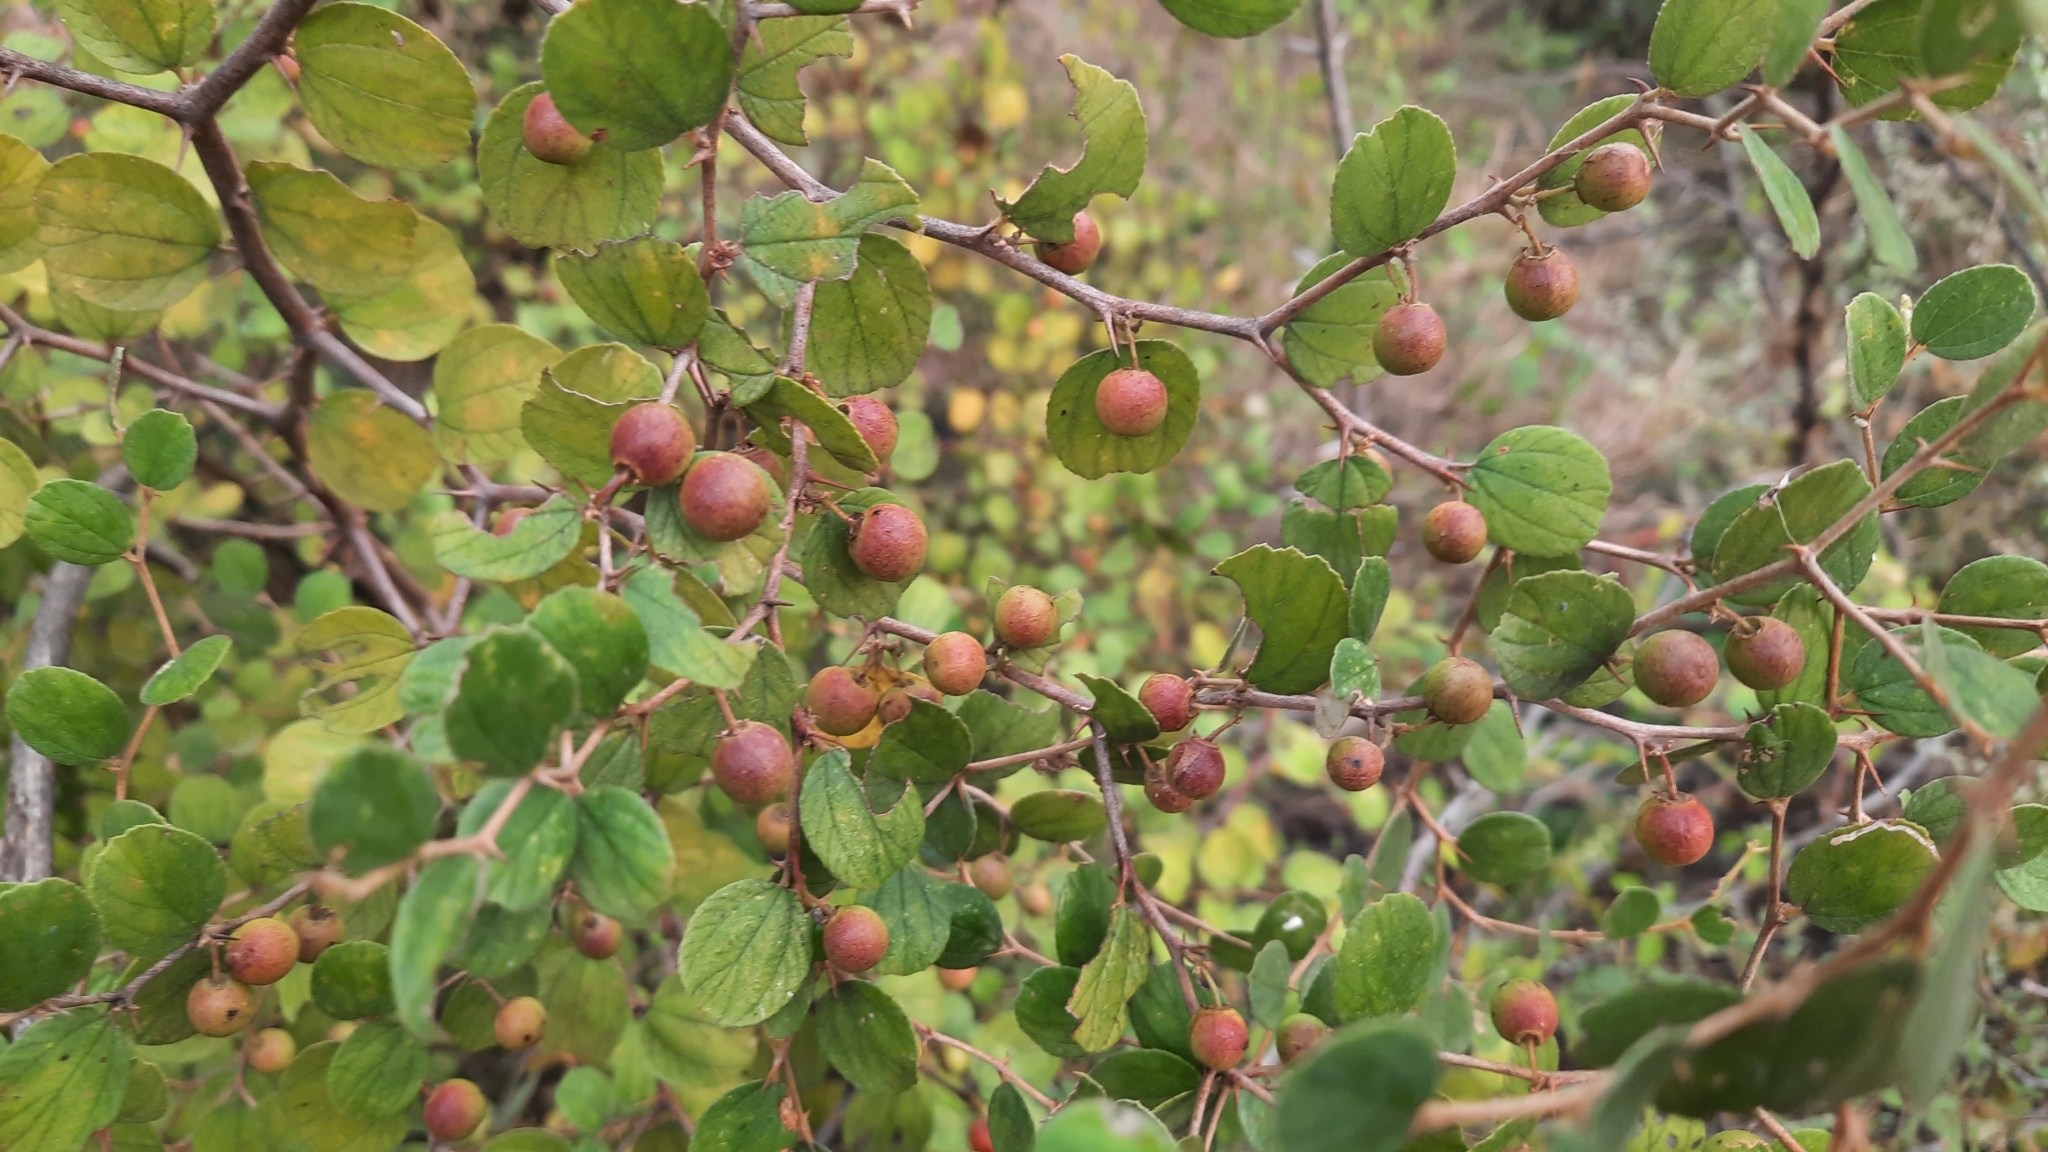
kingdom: Plantae
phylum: Tracheophyta
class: Magnoliopsida
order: Rosales
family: Rhamnaceae
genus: Ziziphus
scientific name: Ziziphus nummularia
